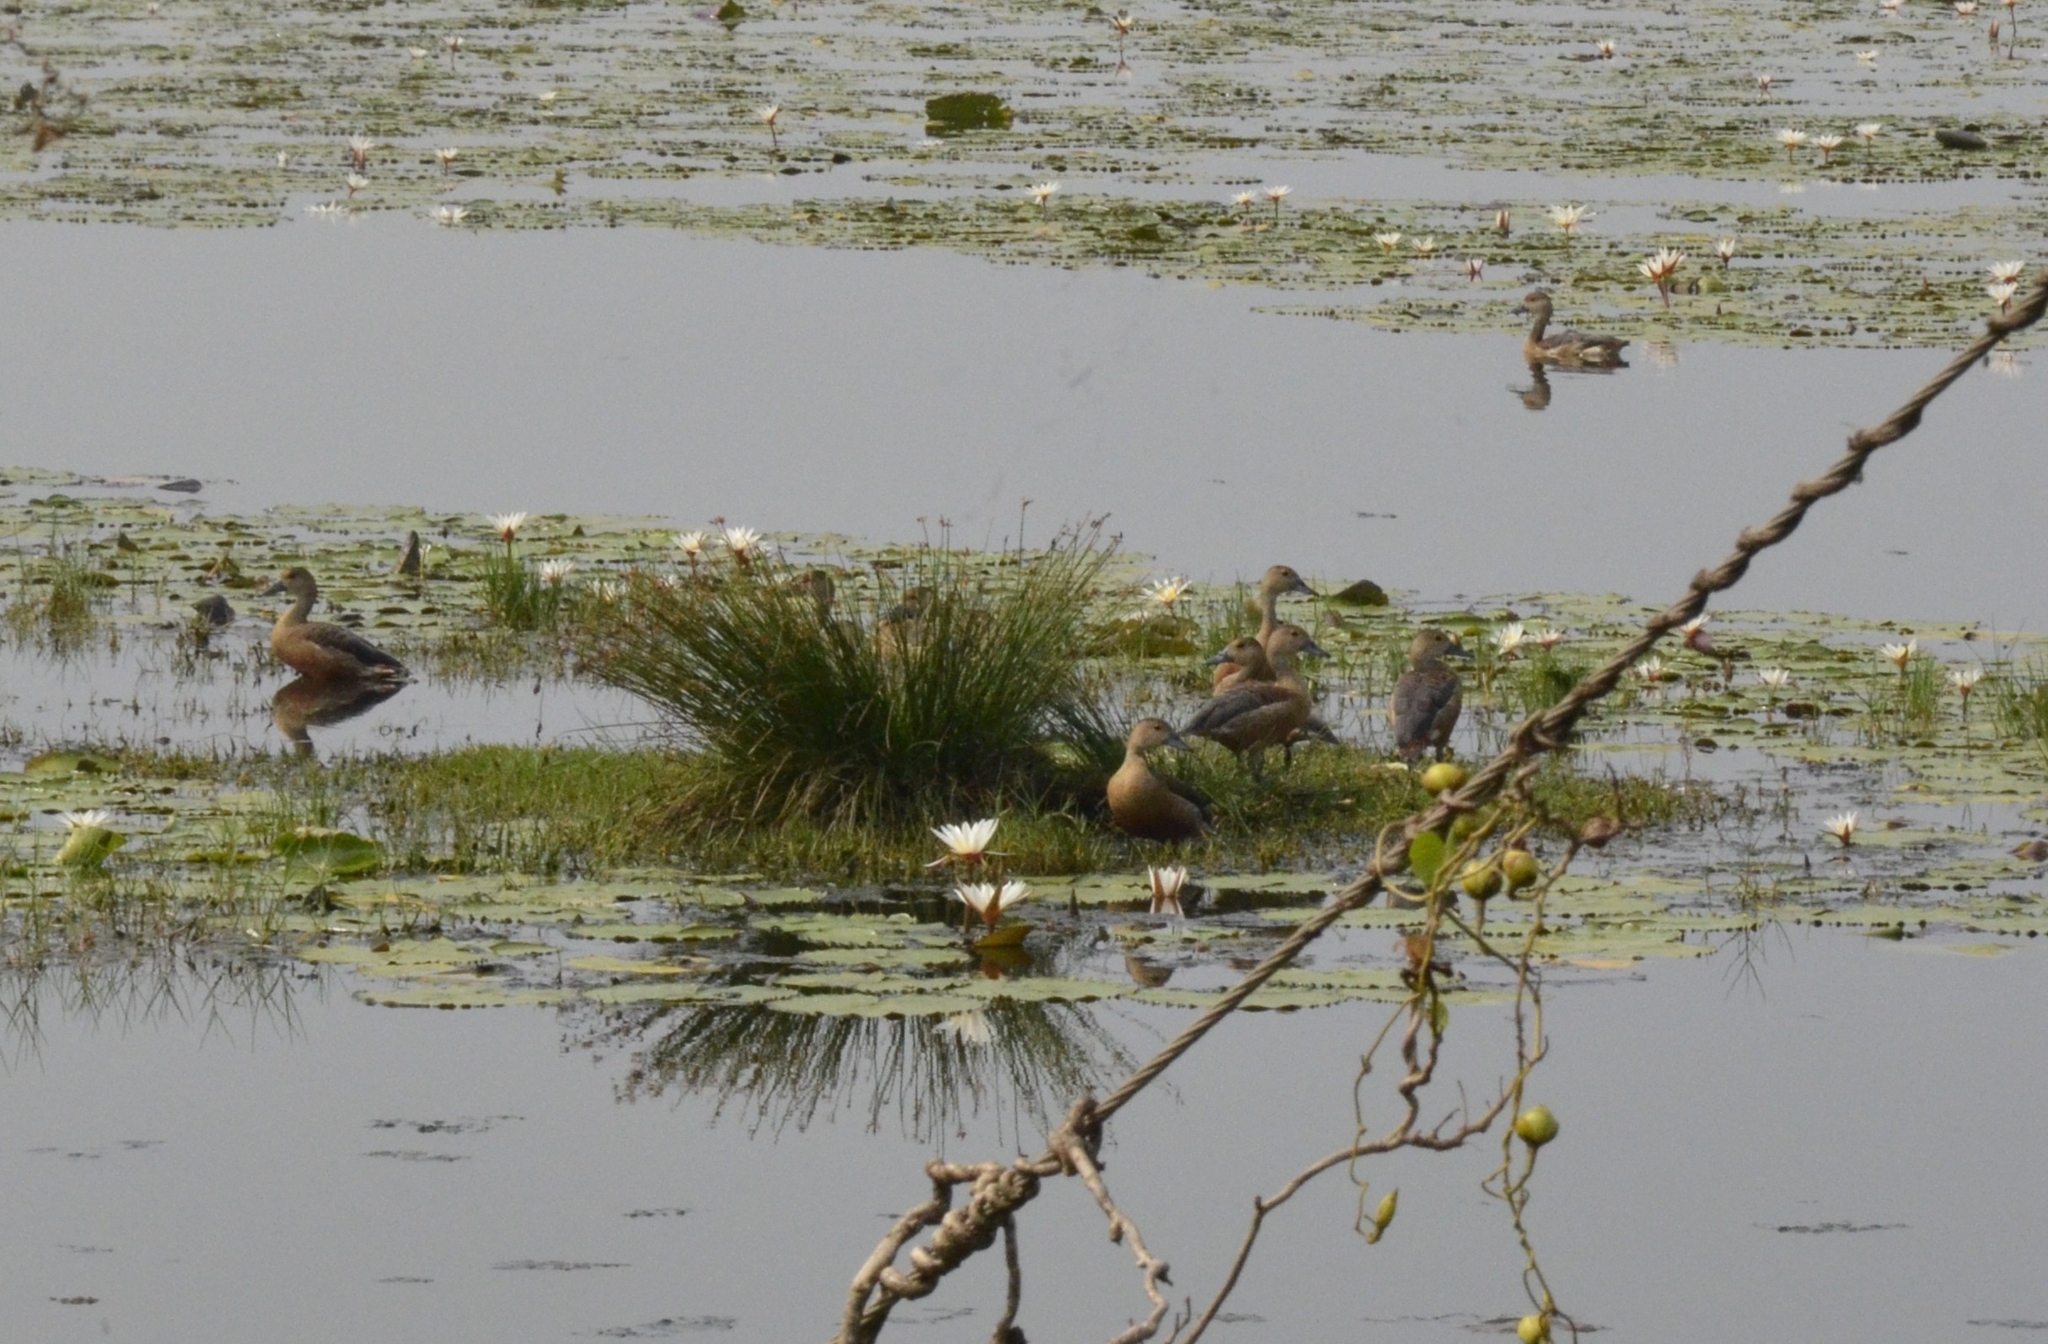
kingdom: Animalia
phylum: Chordata
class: Aves
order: Anseriformes
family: Anatidae
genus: Dendrocygna
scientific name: Dendrocygna javanica
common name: Lesser whistling-duck
